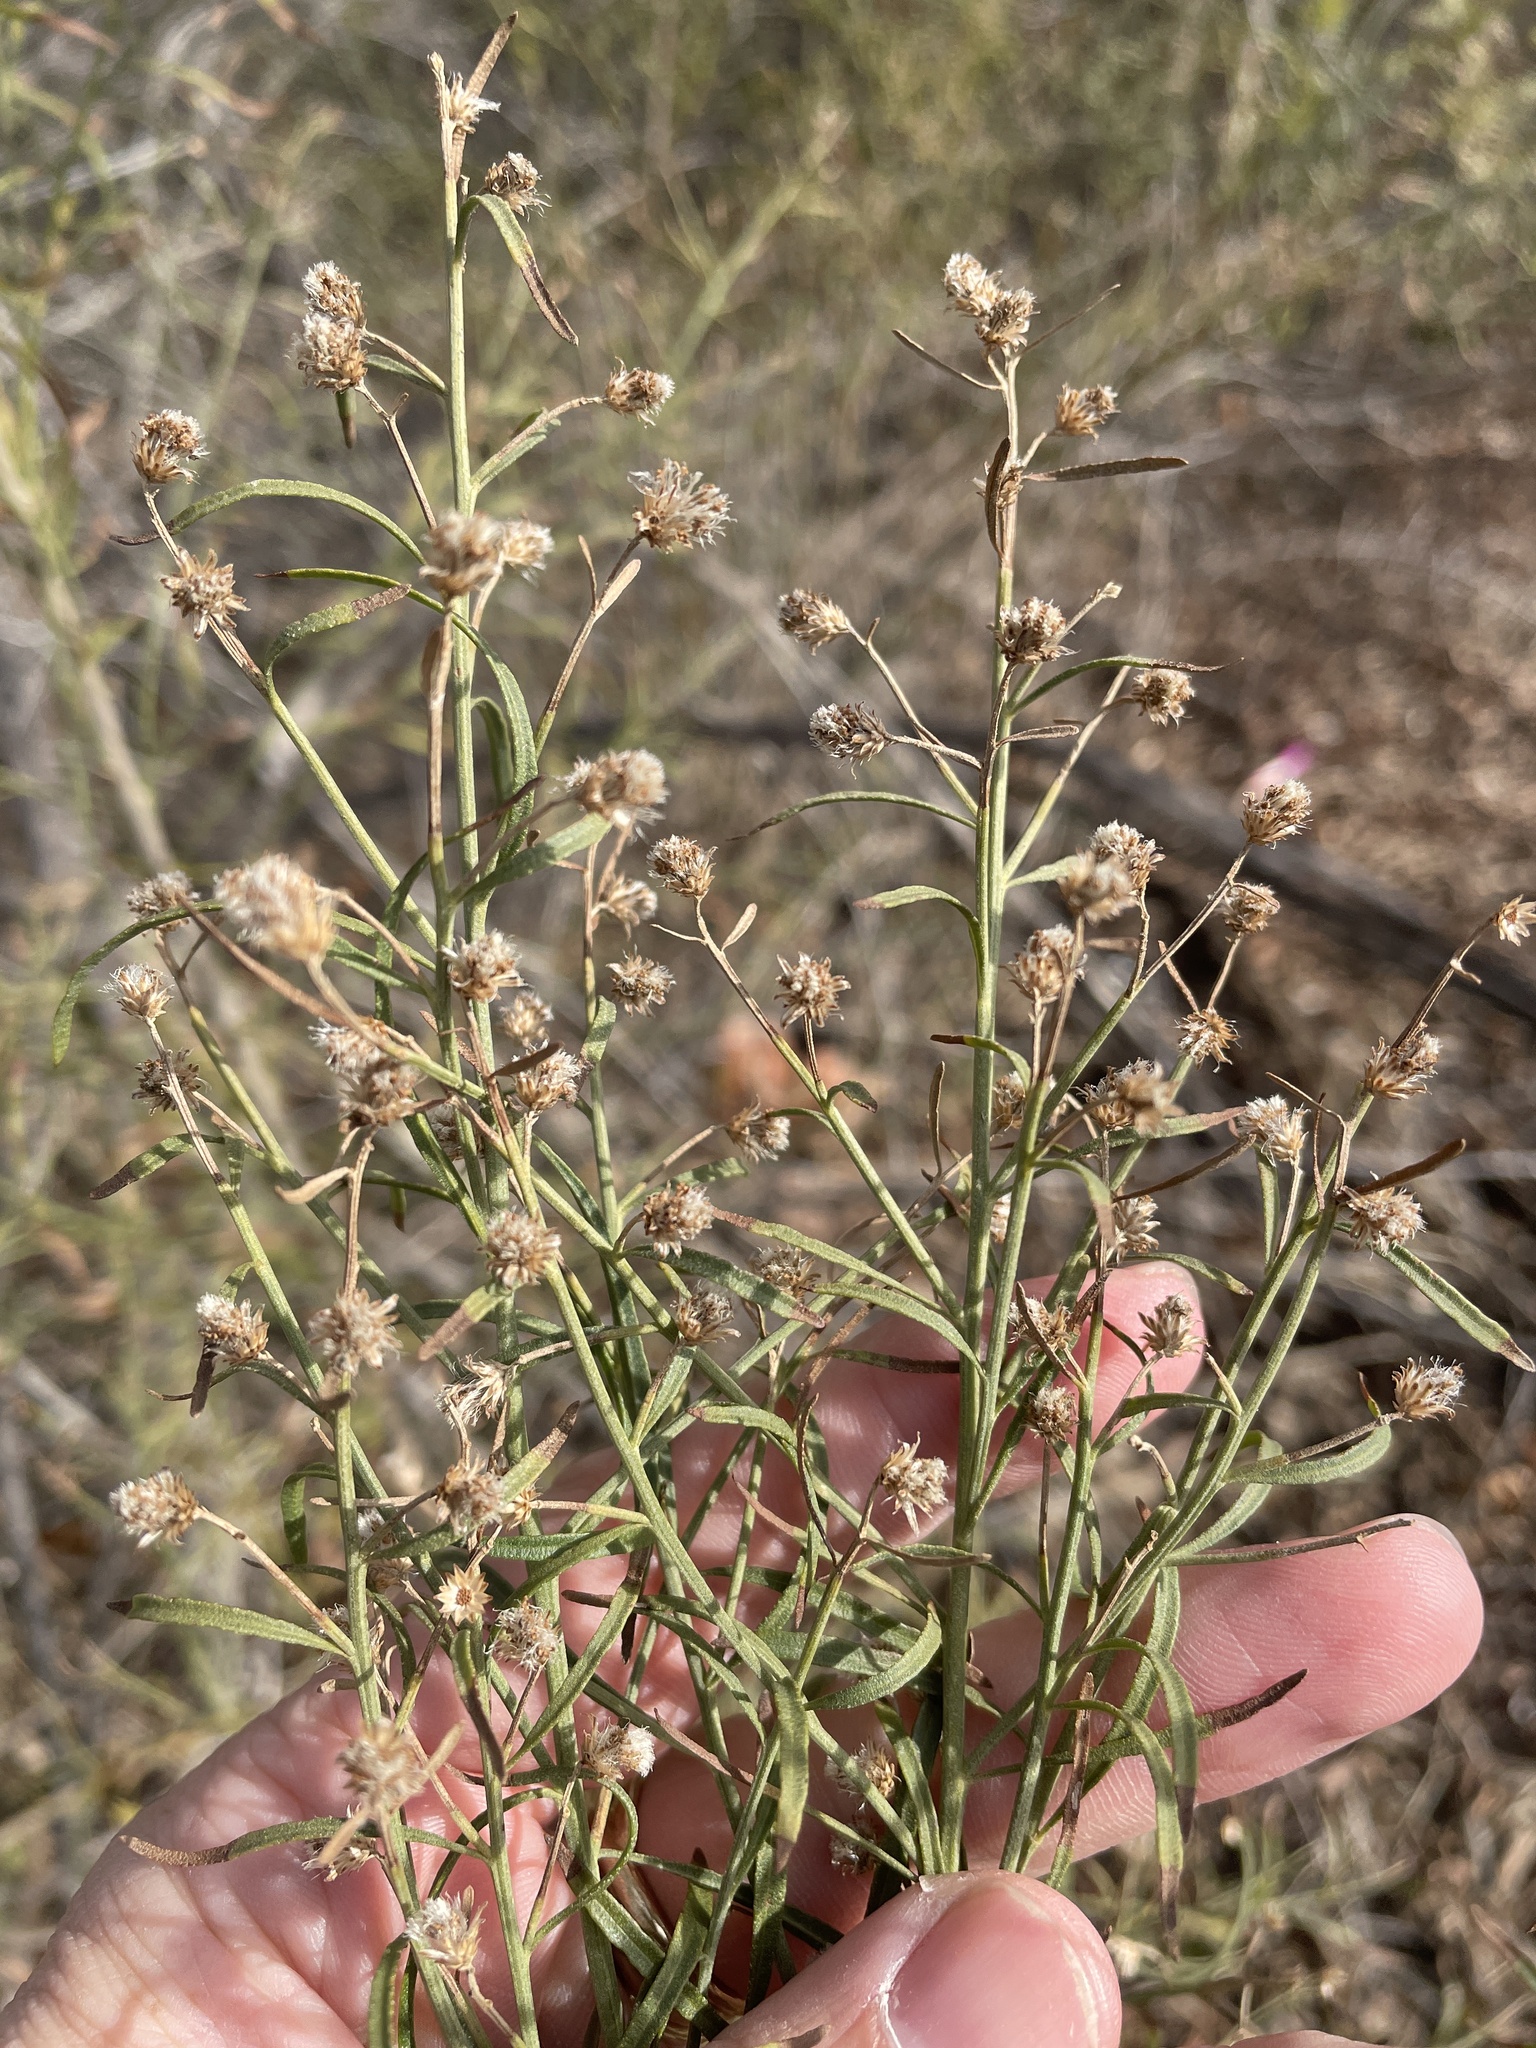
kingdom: Plantae
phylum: Tracheophyta
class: Magnoliopsida
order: Asterales
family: Asteraceae
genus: Baccharis
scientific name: Baccharis neglecta
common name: Roosevelt-weed
